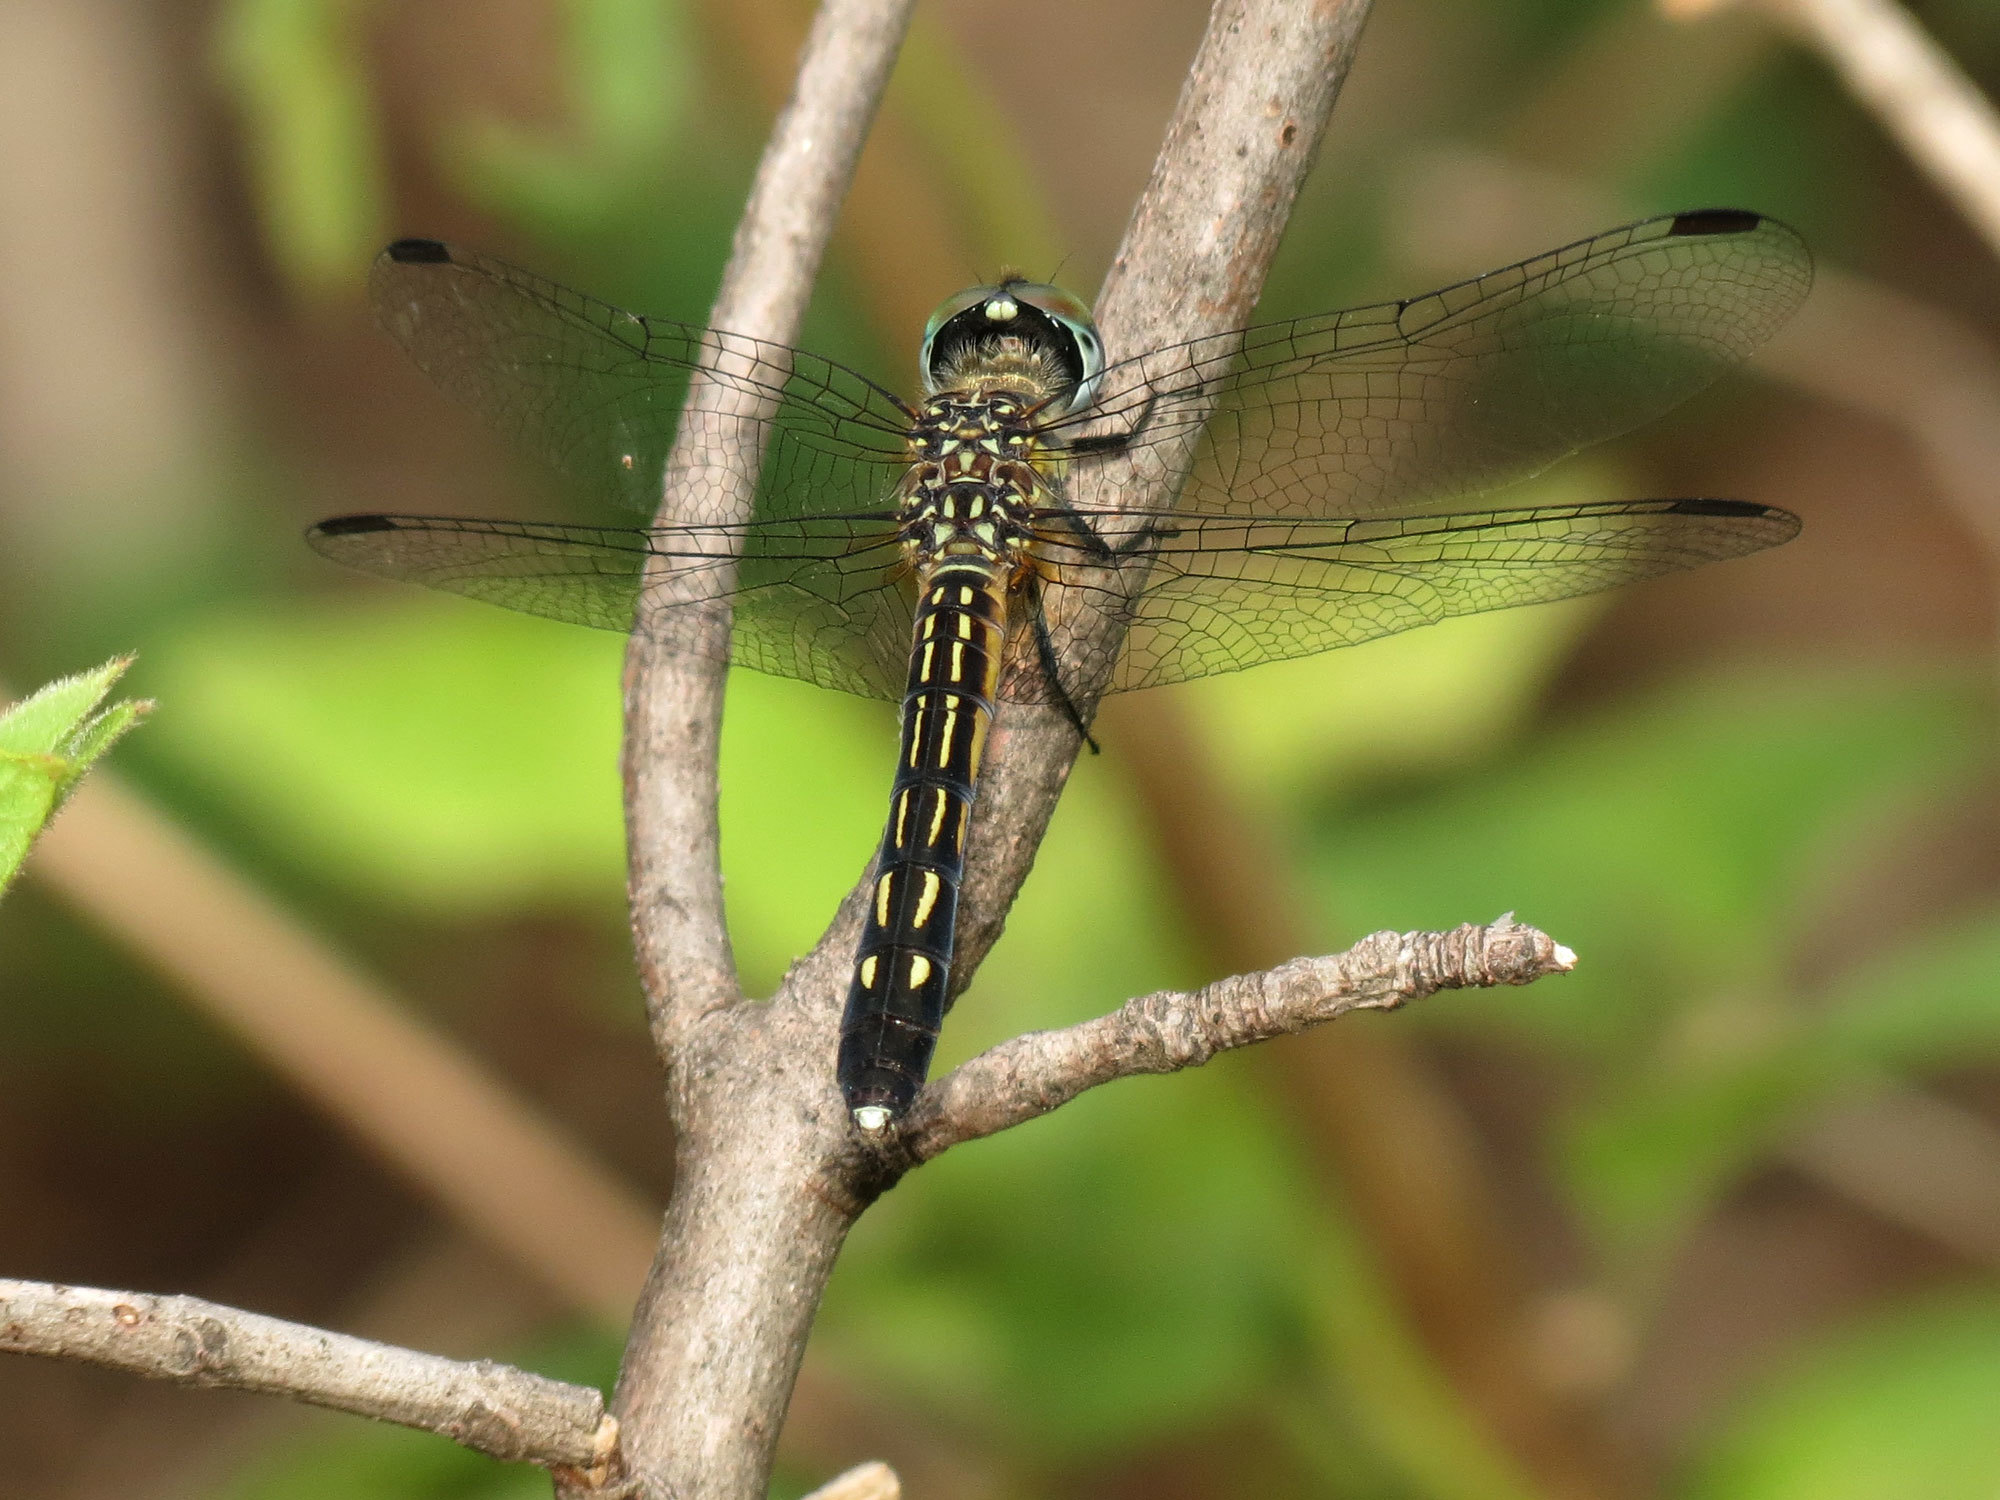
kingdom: Animalia
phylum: Arthropoda
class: Insecta
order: Odonata
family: Libellulidae
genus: Pachydiplax
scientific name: Pachydiplax longipennis
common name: Blue dasher
